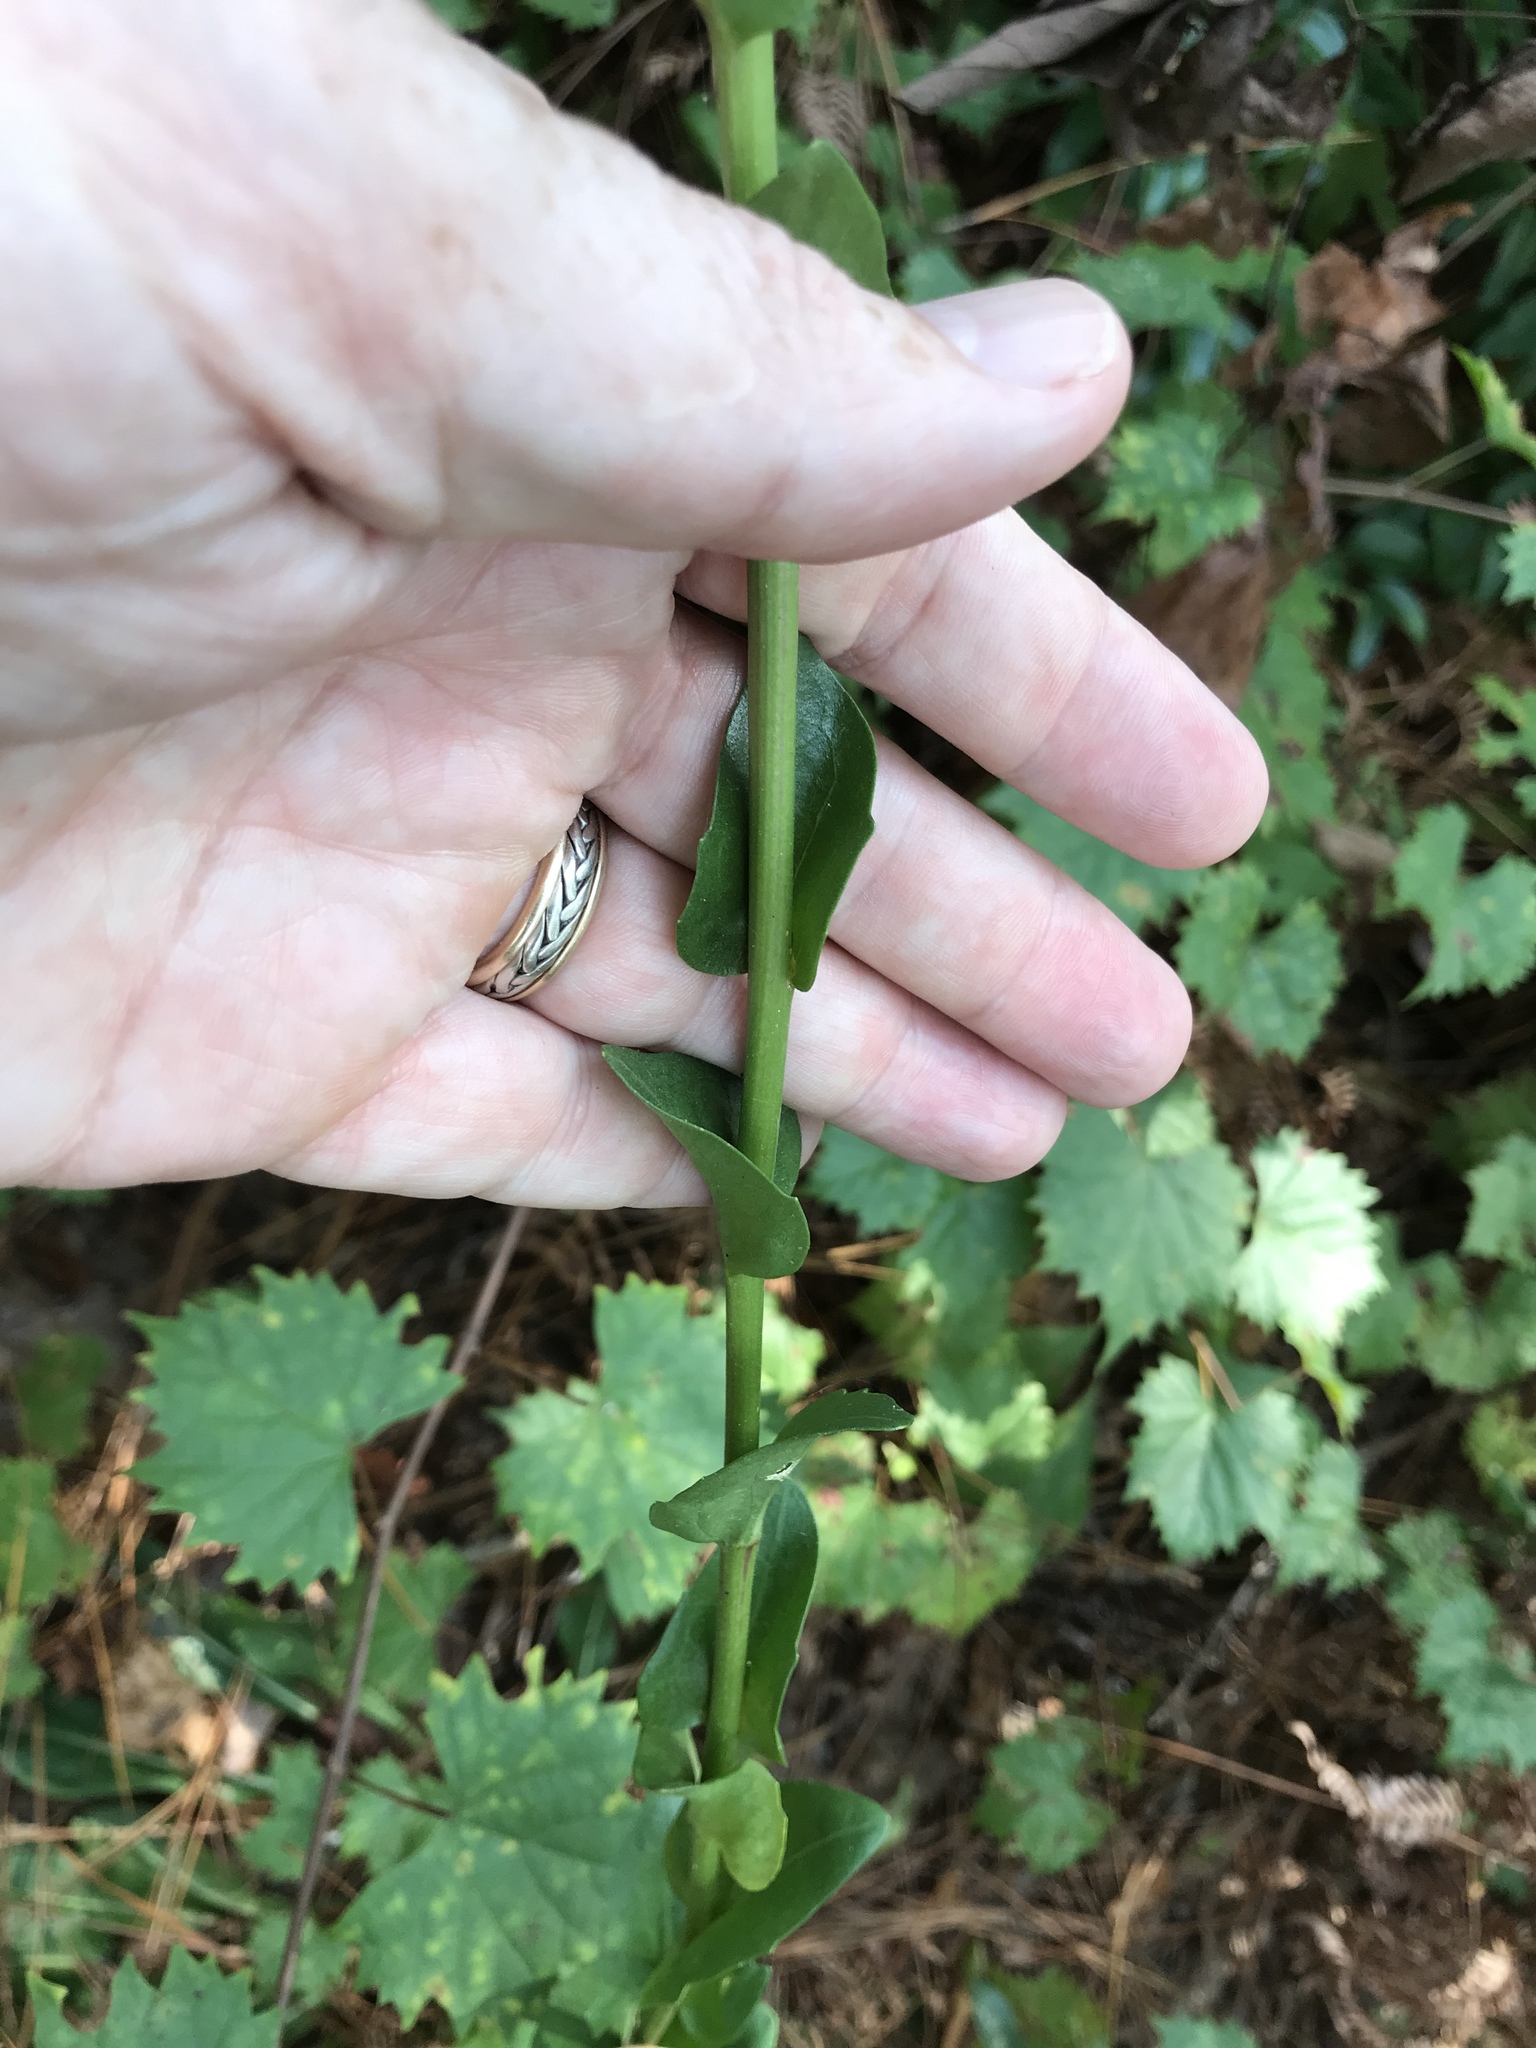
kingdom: Plantae
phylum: Tracheophyta
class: Magnoliopsida
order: Asterales
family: Asteraceae
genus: Carphephorus
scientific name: Carphephorus odoratissimus
